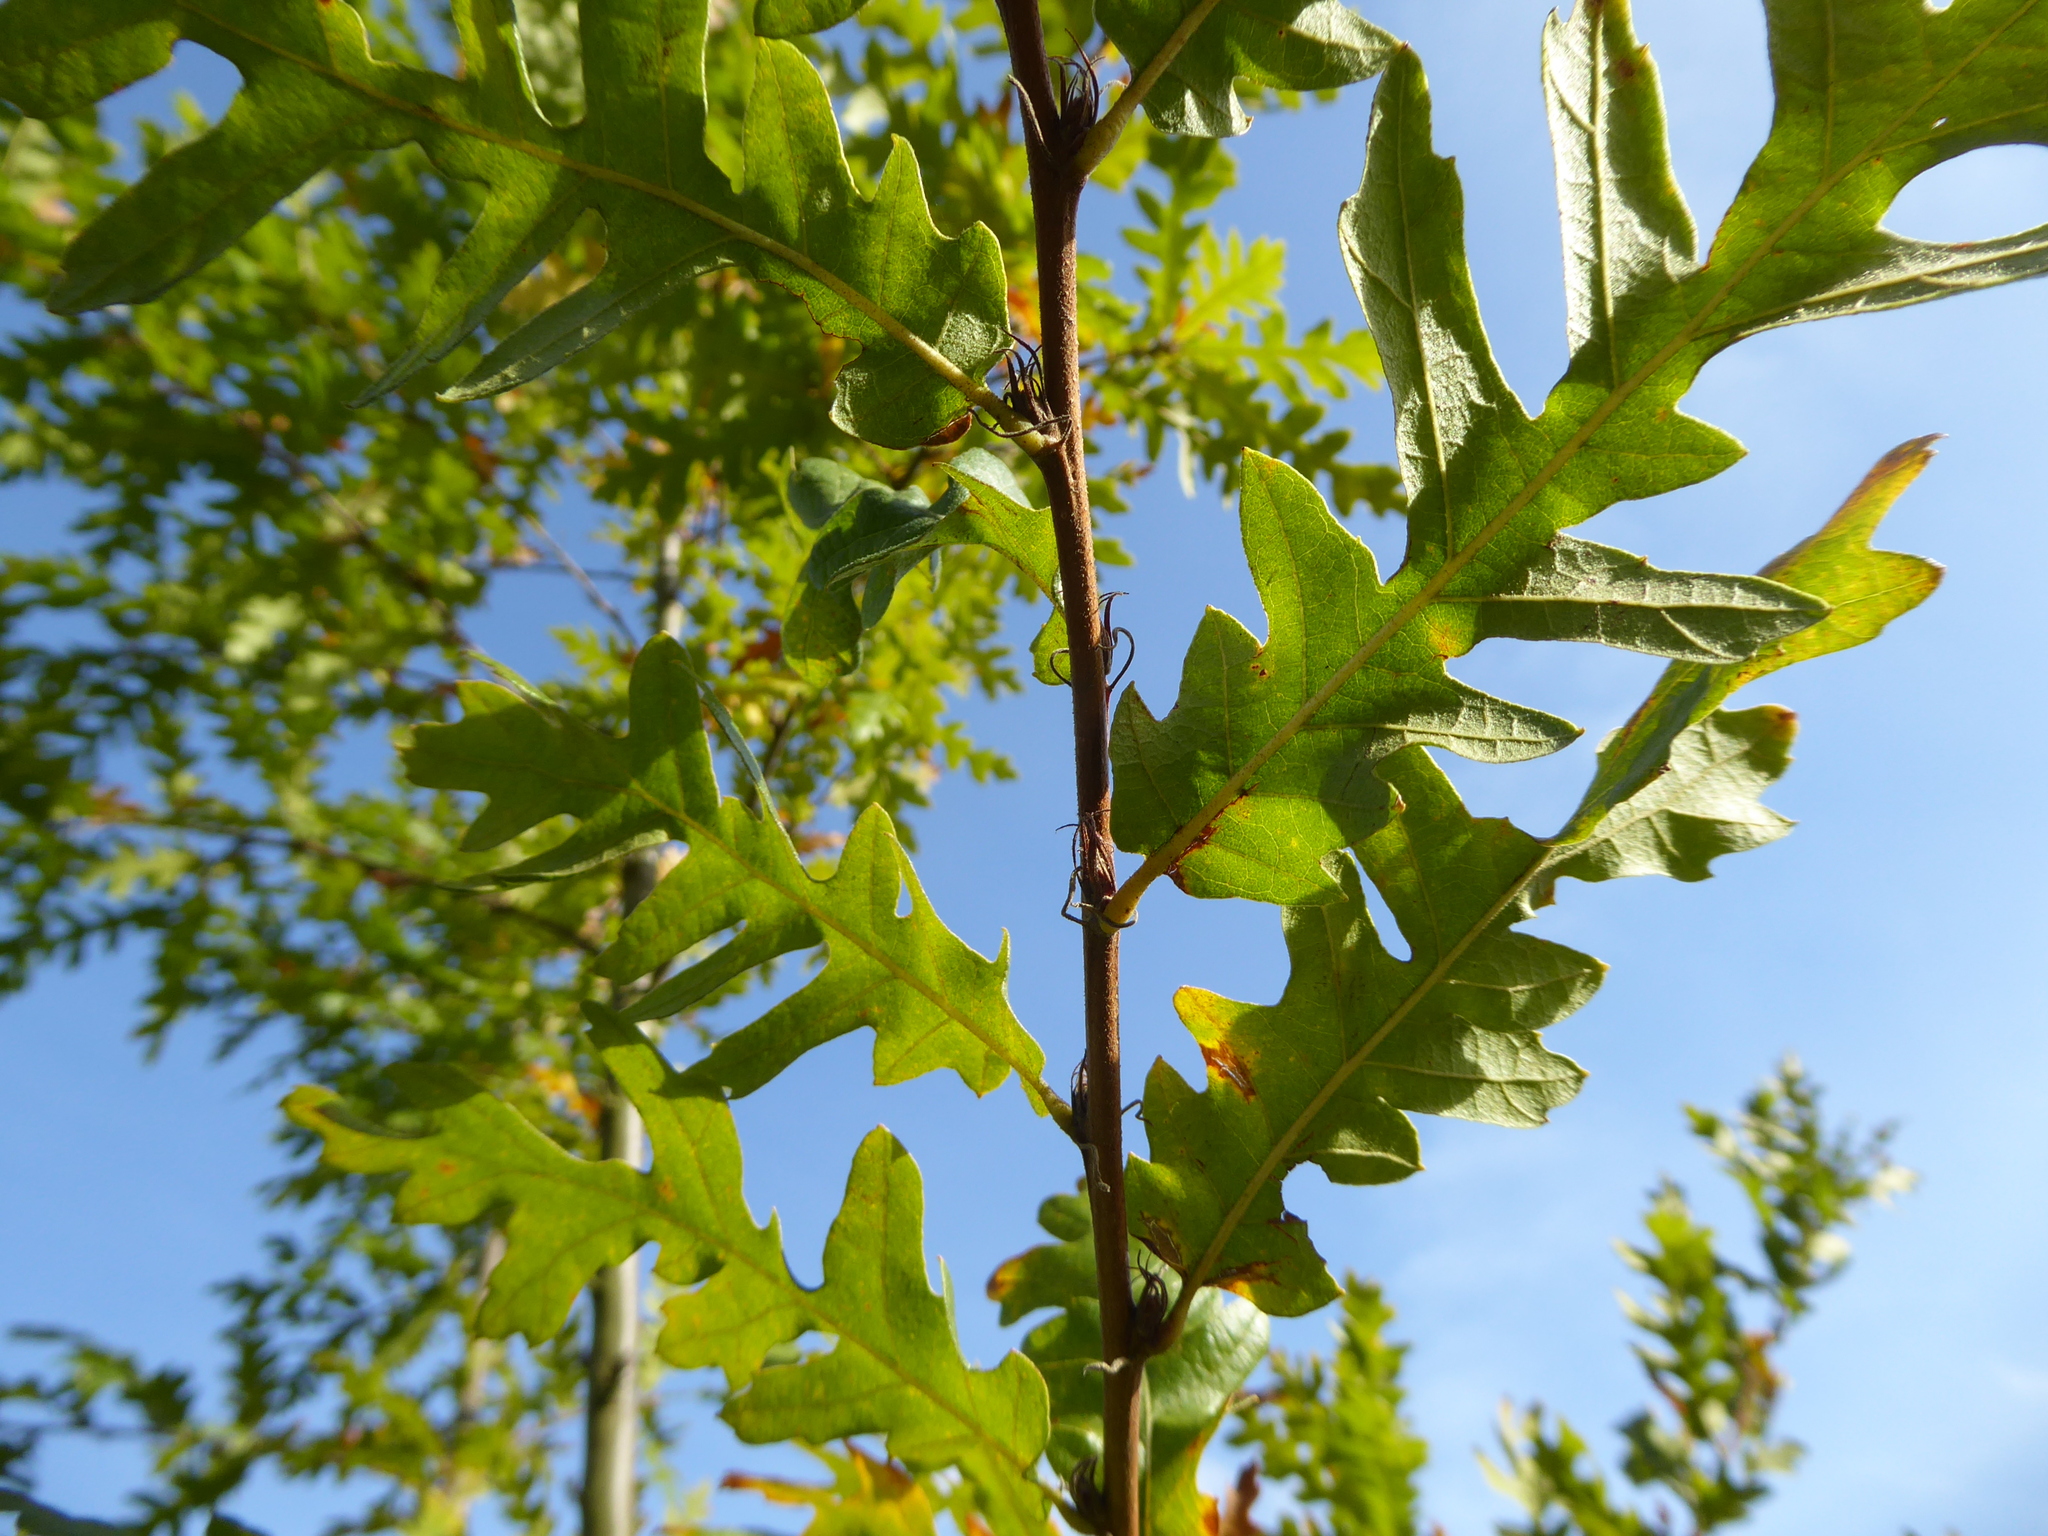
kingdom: Plantae
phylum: Tracheophyta
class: Magnoliopsida
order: Fagales
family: Fagaceae
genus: Quercus
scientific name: Quercus cerris
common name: Turkey oak
